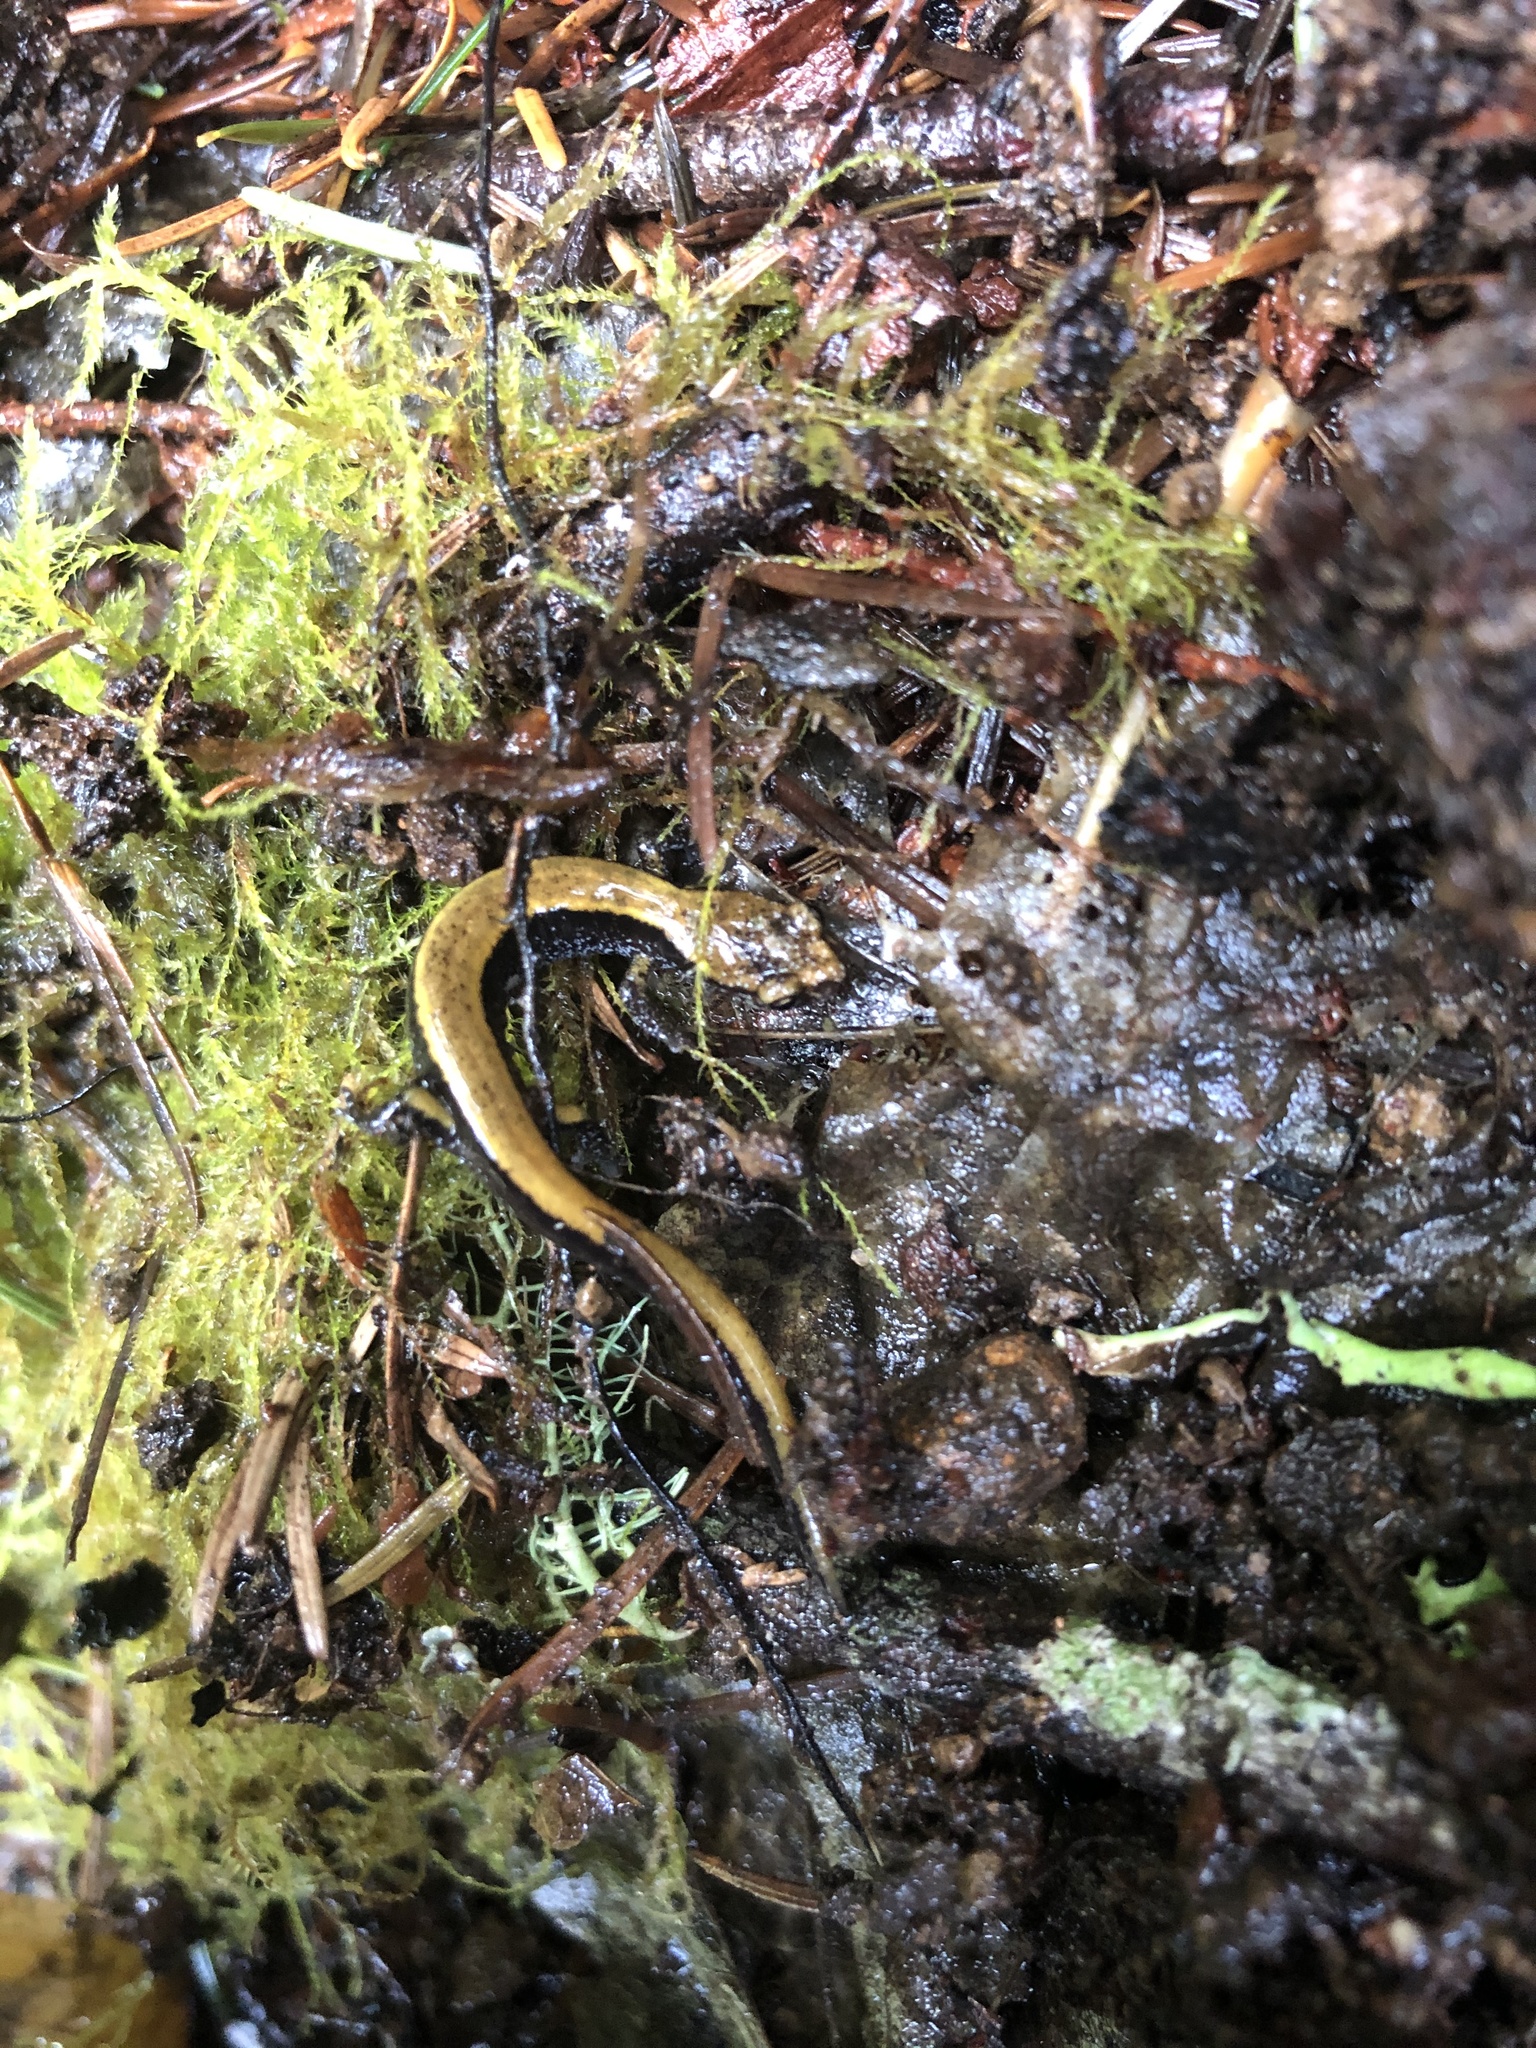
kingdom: Animalia
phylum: Chordata
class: Amphibia
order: Caudata
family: Plethodontidae
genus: Plethodon
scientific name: Plethodon vehiculum
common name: Western red-backed salamander
